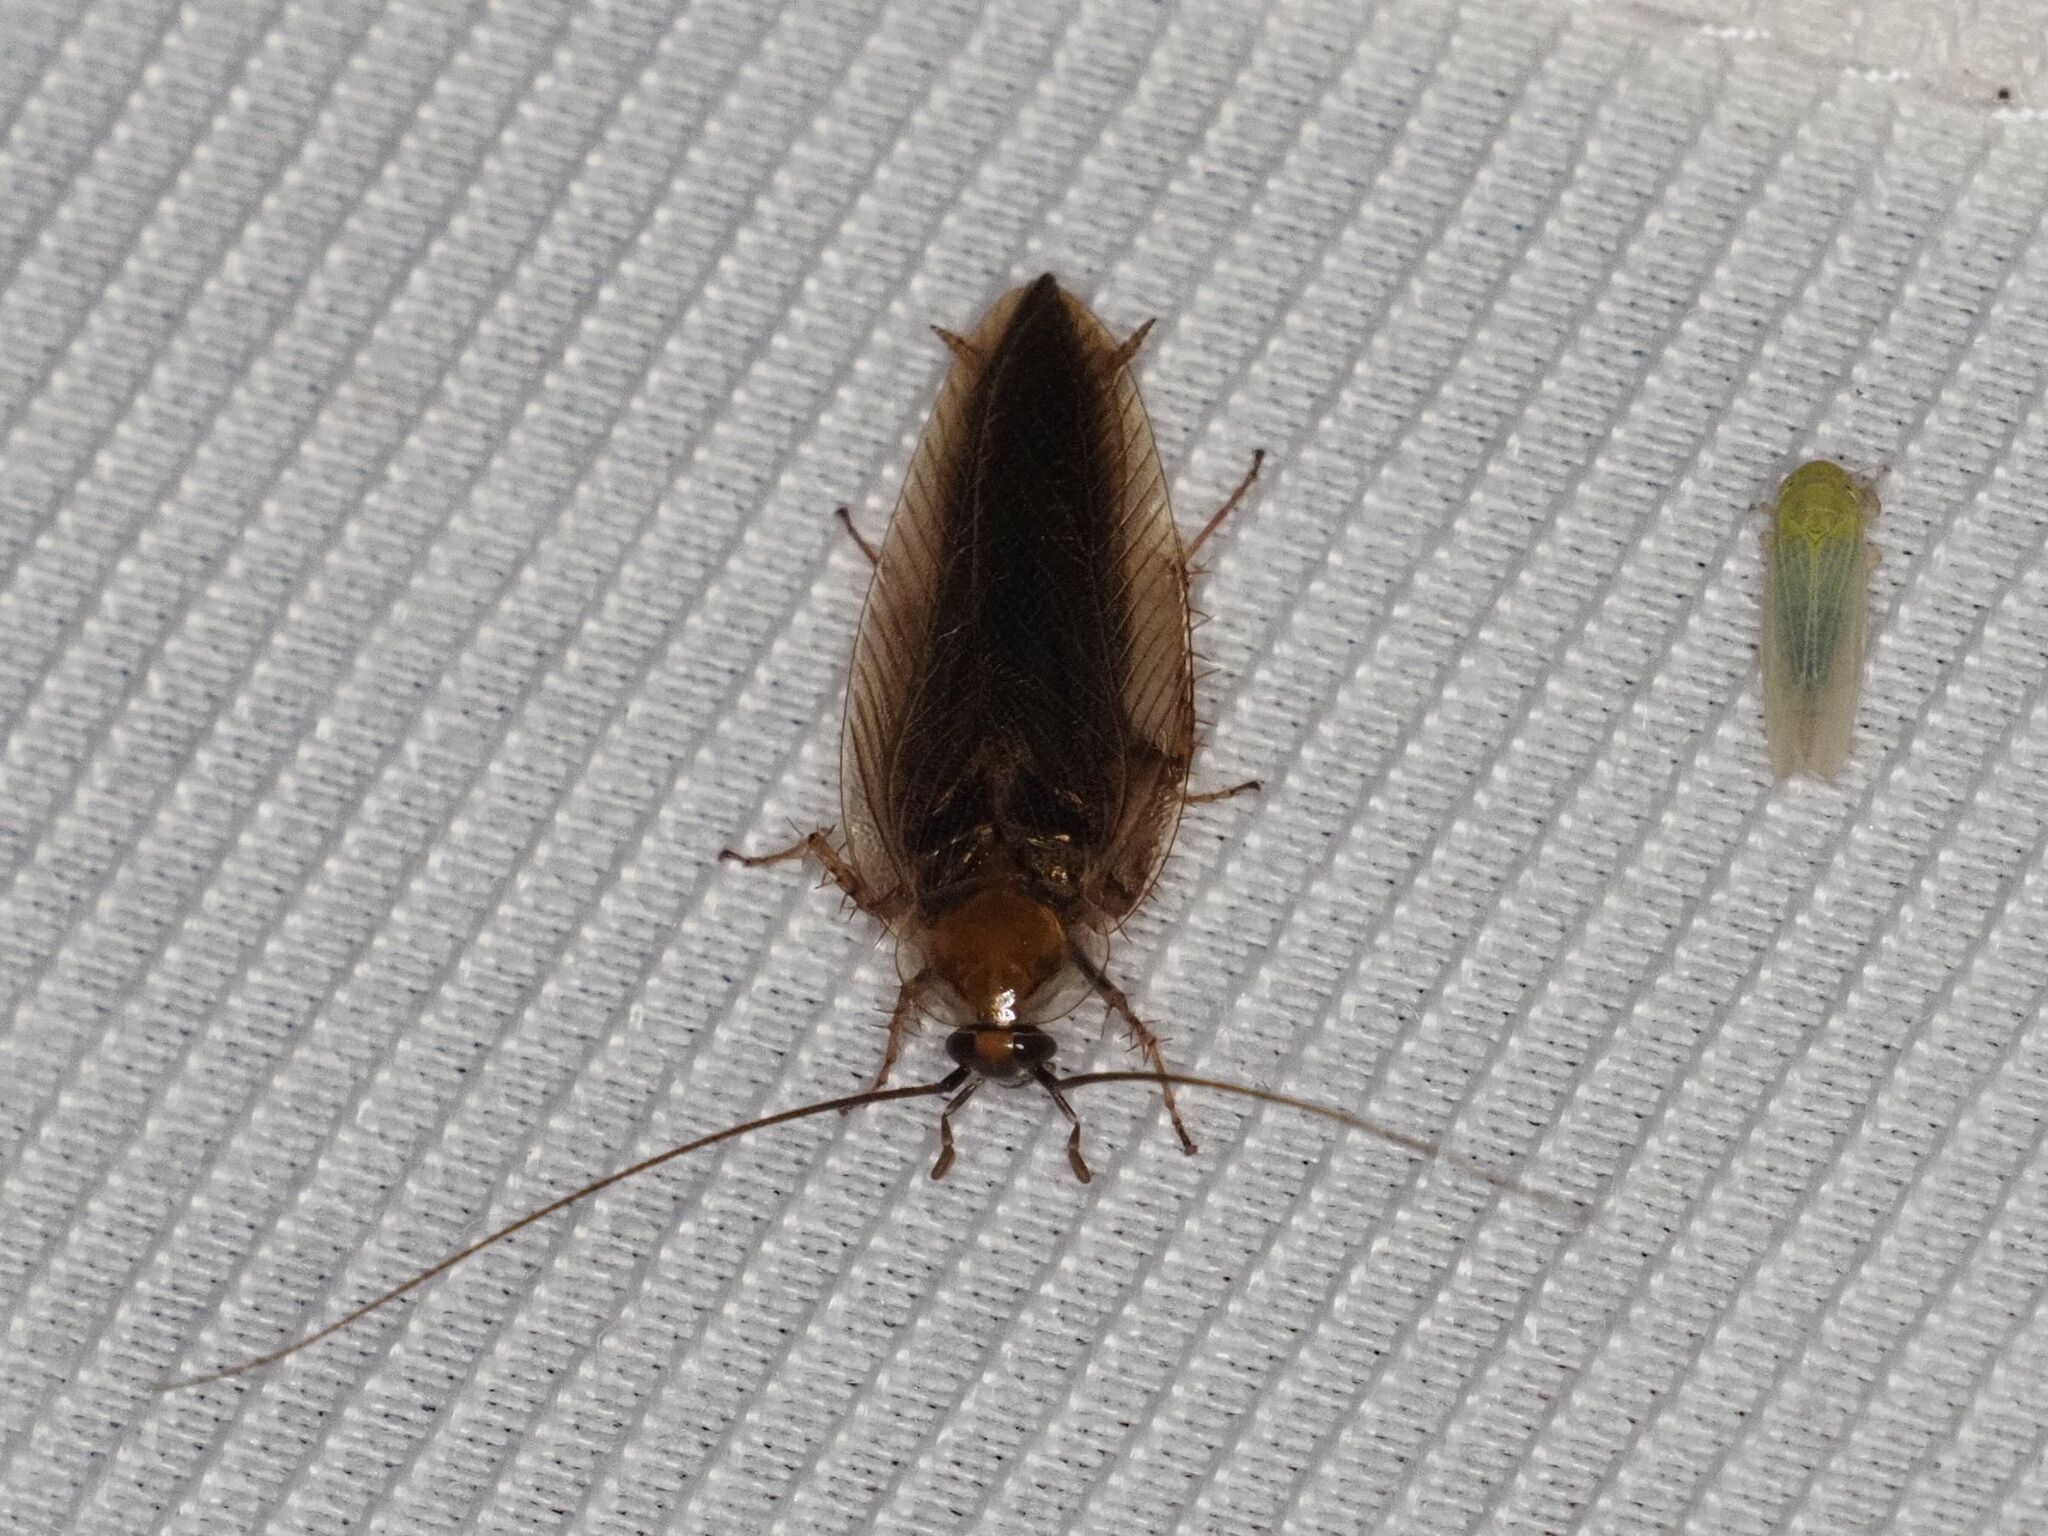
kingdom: Animalia
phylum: Arthropoda
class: Insecta
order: Blattodea
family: Ectobiidae
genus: Ectobius
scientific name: Ectobius vittiventris
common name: Garden cockroach
